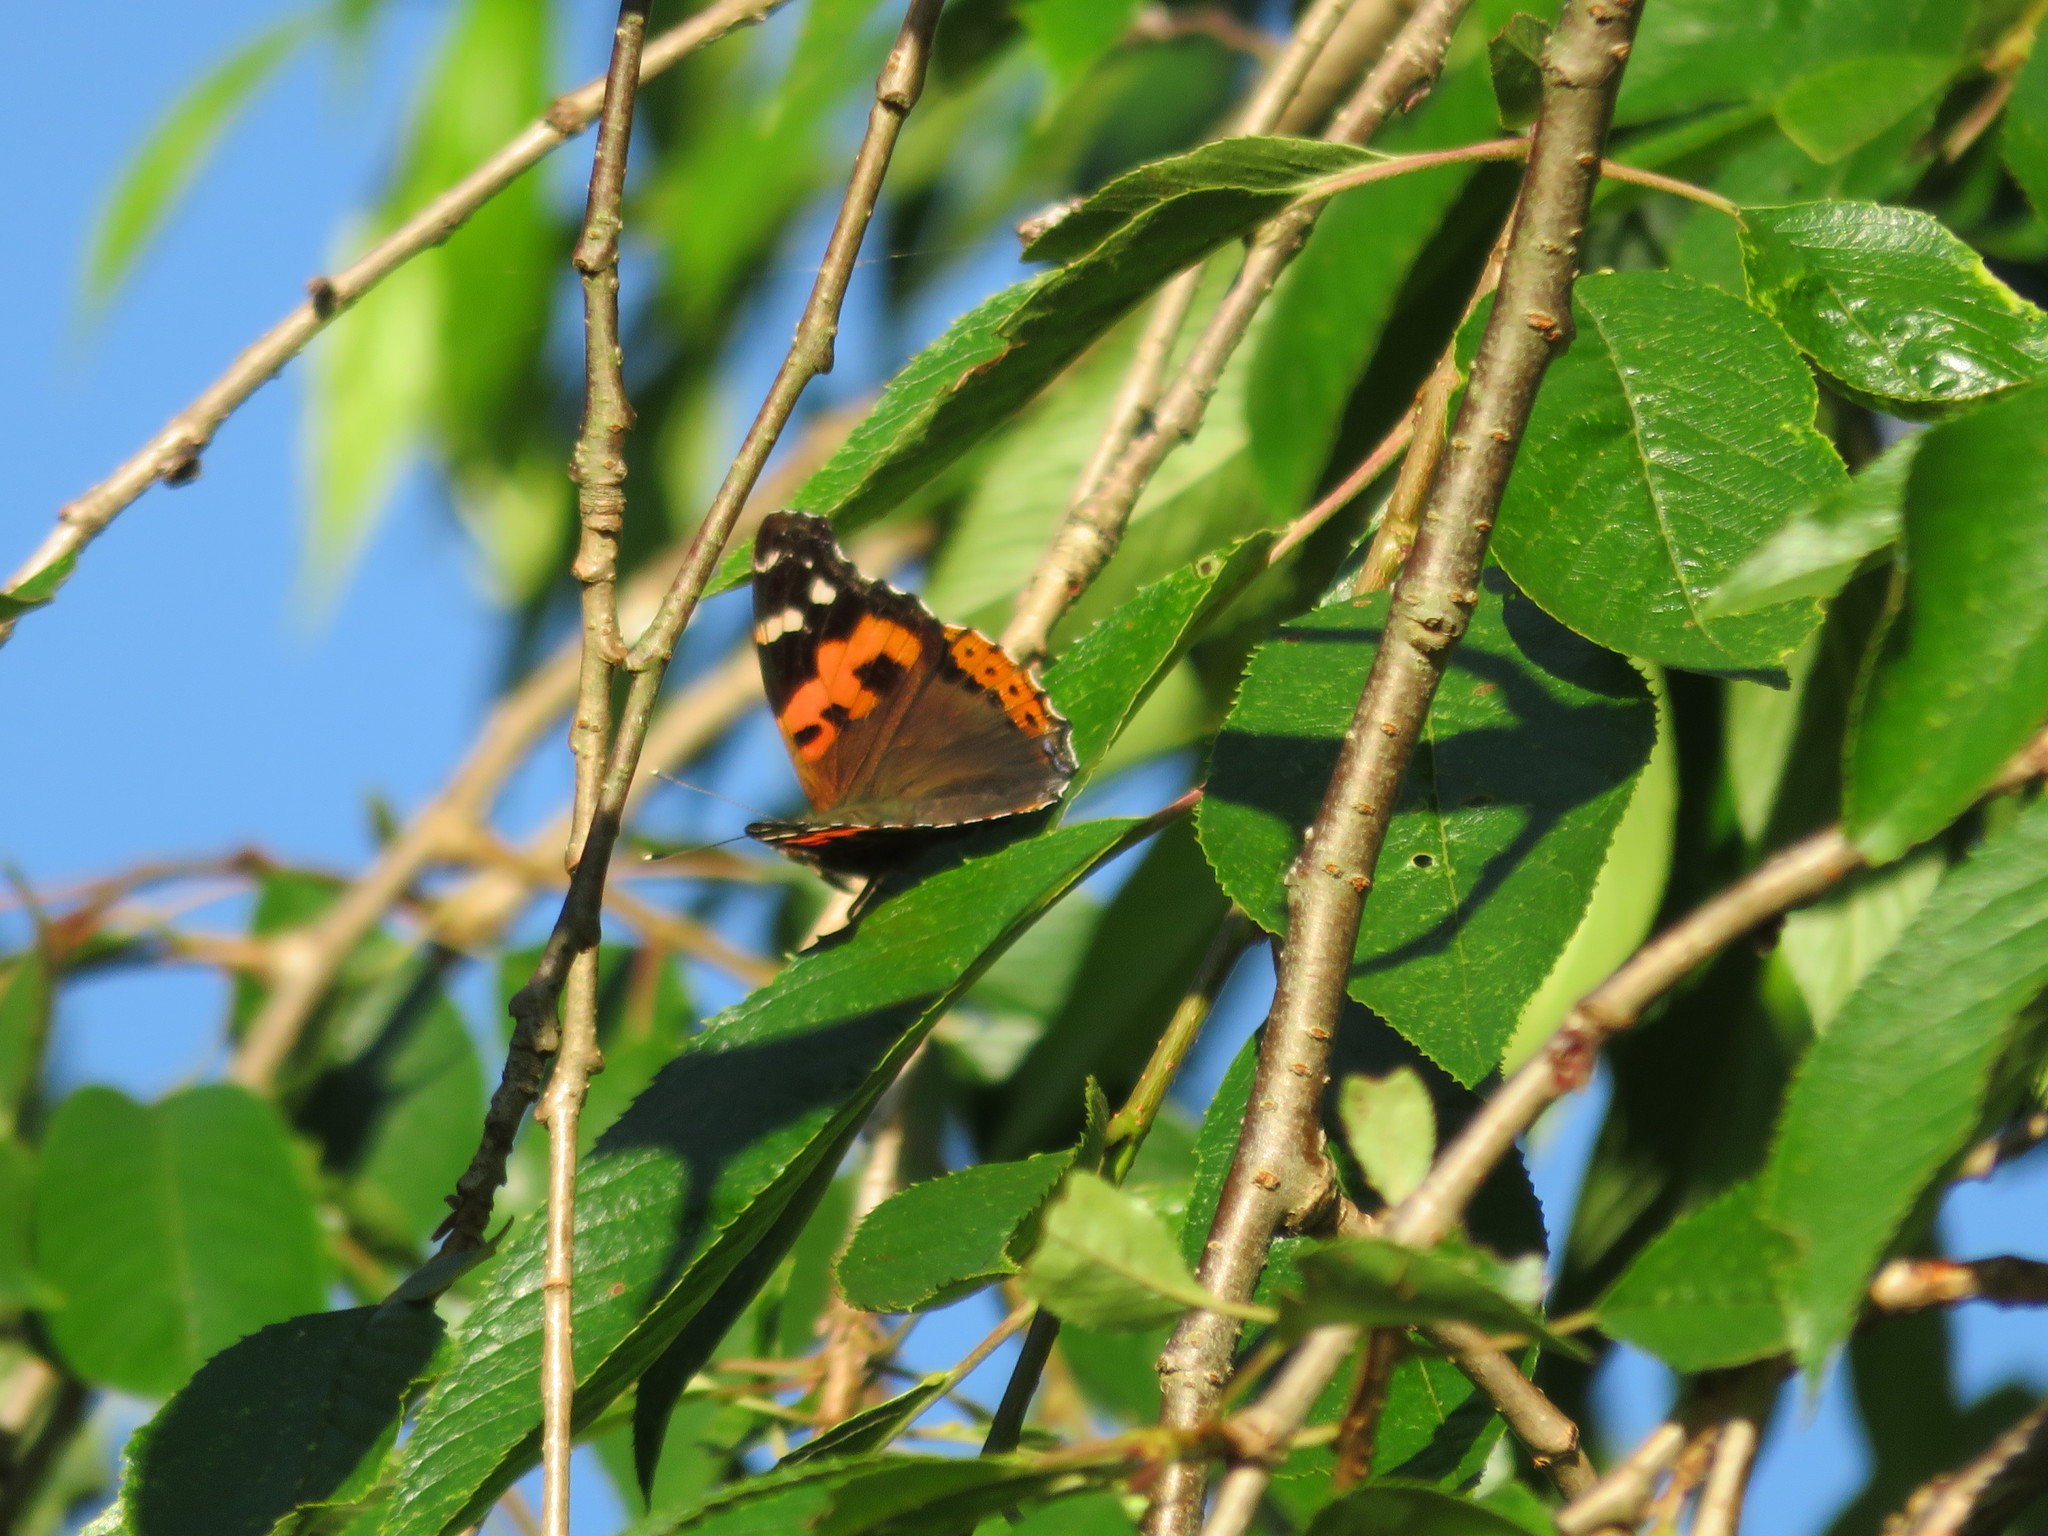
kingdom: Animalia
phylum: Arthropoda
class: Insecta
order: Lepidoptera
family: Nymphalidae
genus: Vanessa
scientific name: Vanessa indica
